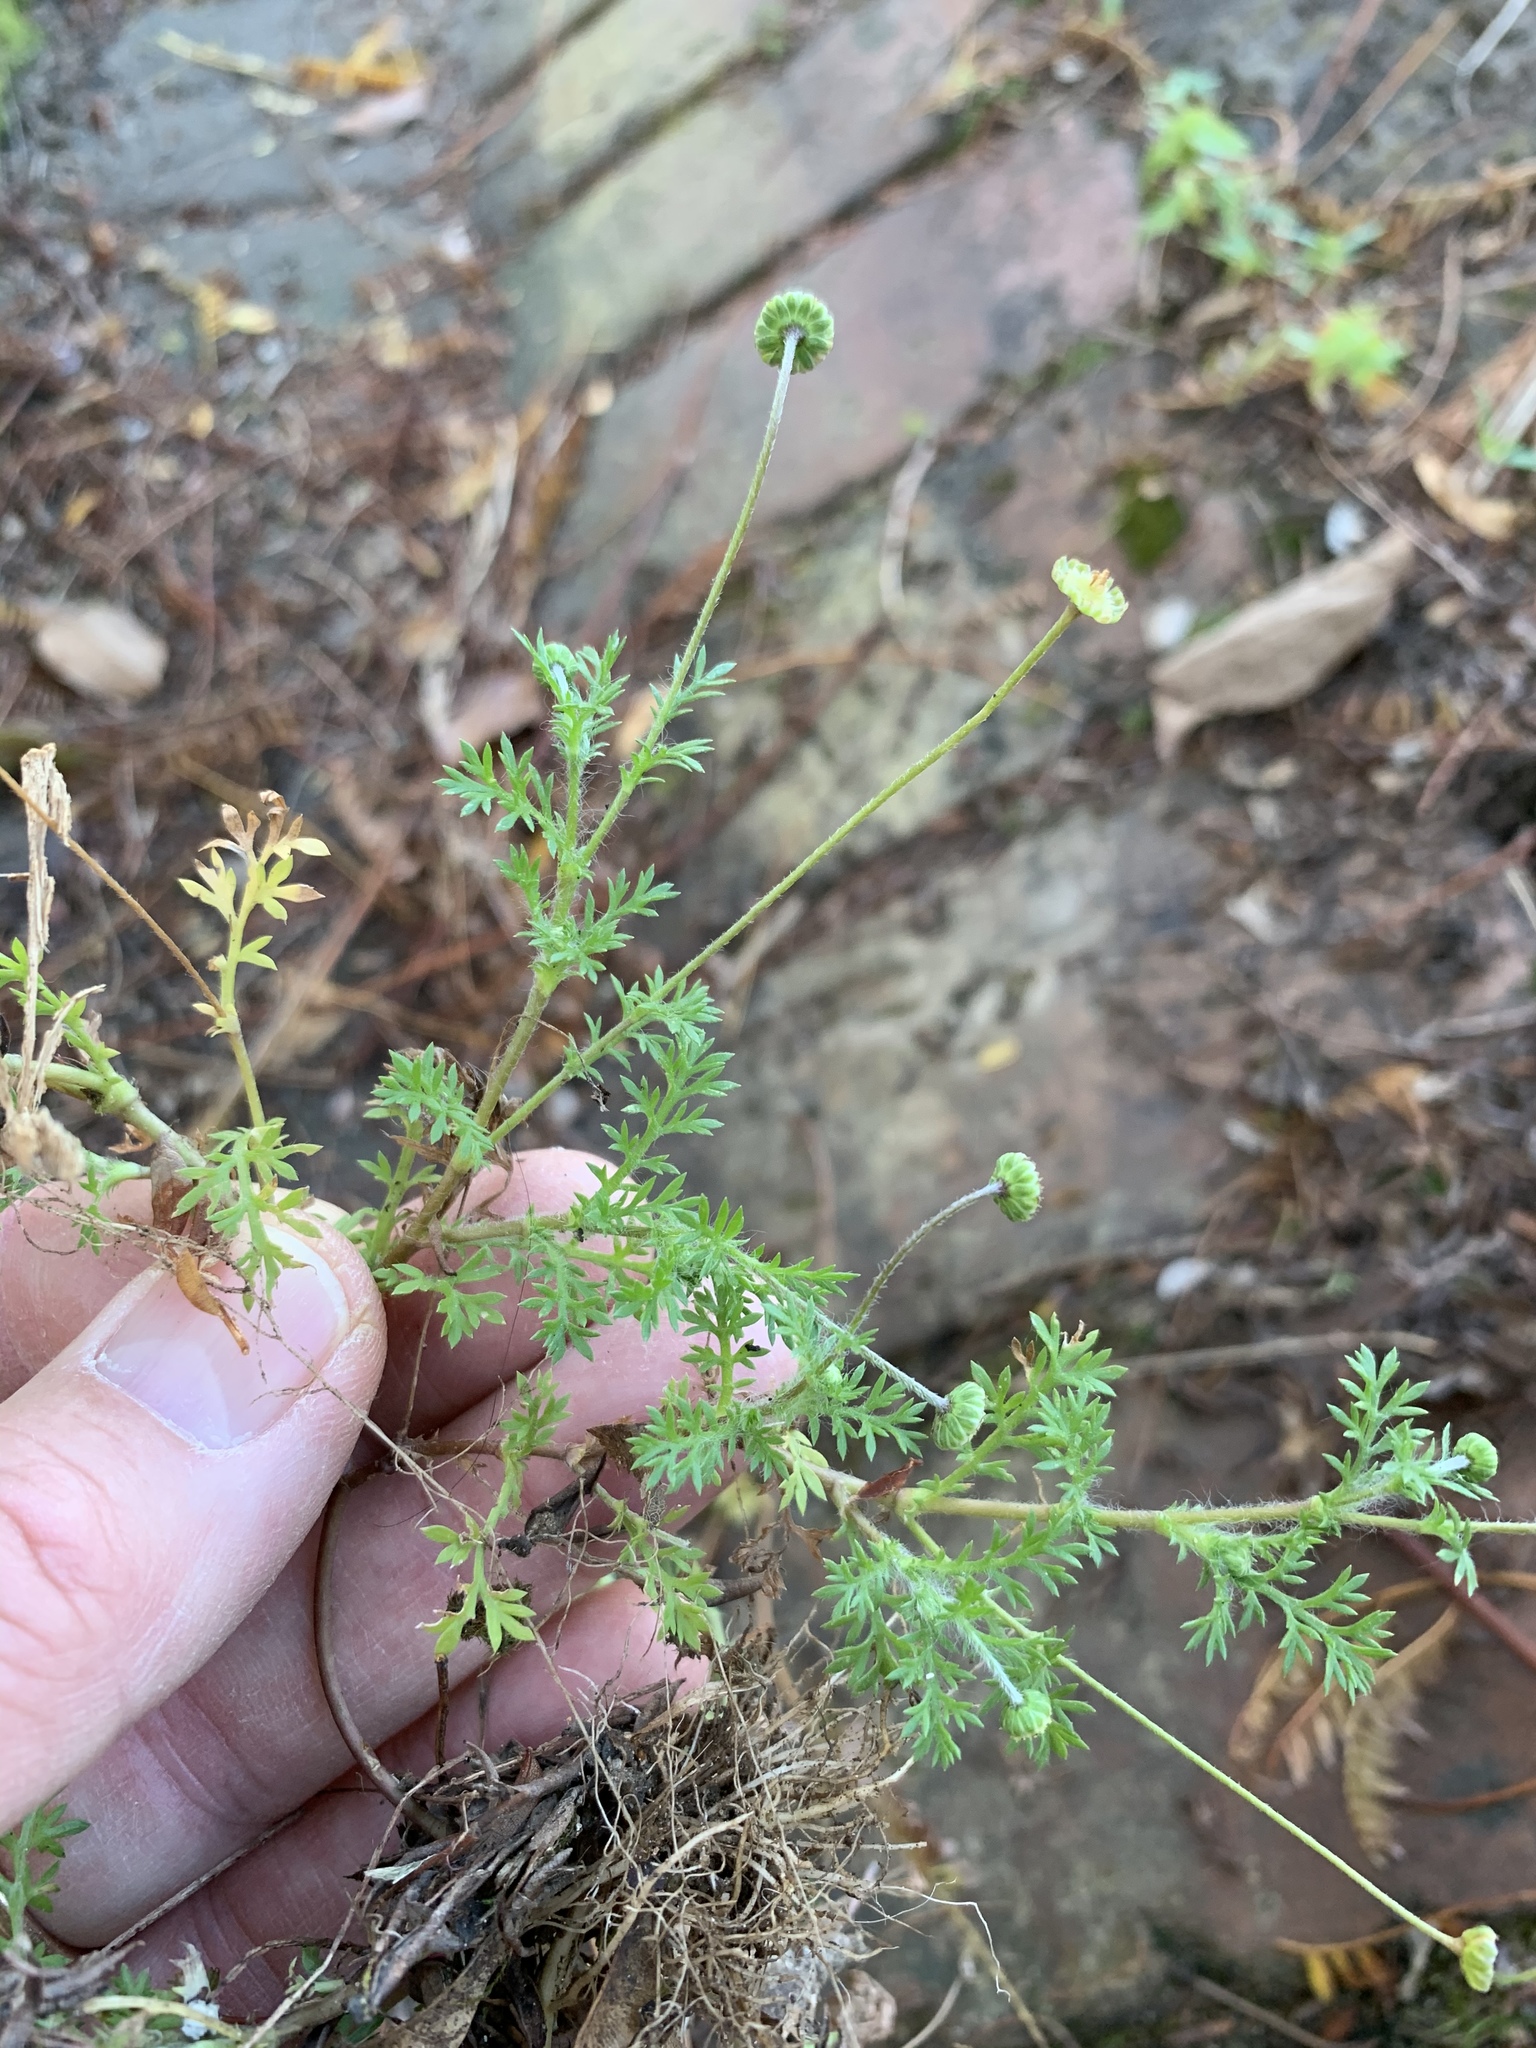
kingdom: Plantae
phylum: Tracheophyta
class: Magnoliopsida
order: Asterales
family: Asteraceae
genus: Cotula
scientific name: Cotula australis
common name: Australian waterbuttons
